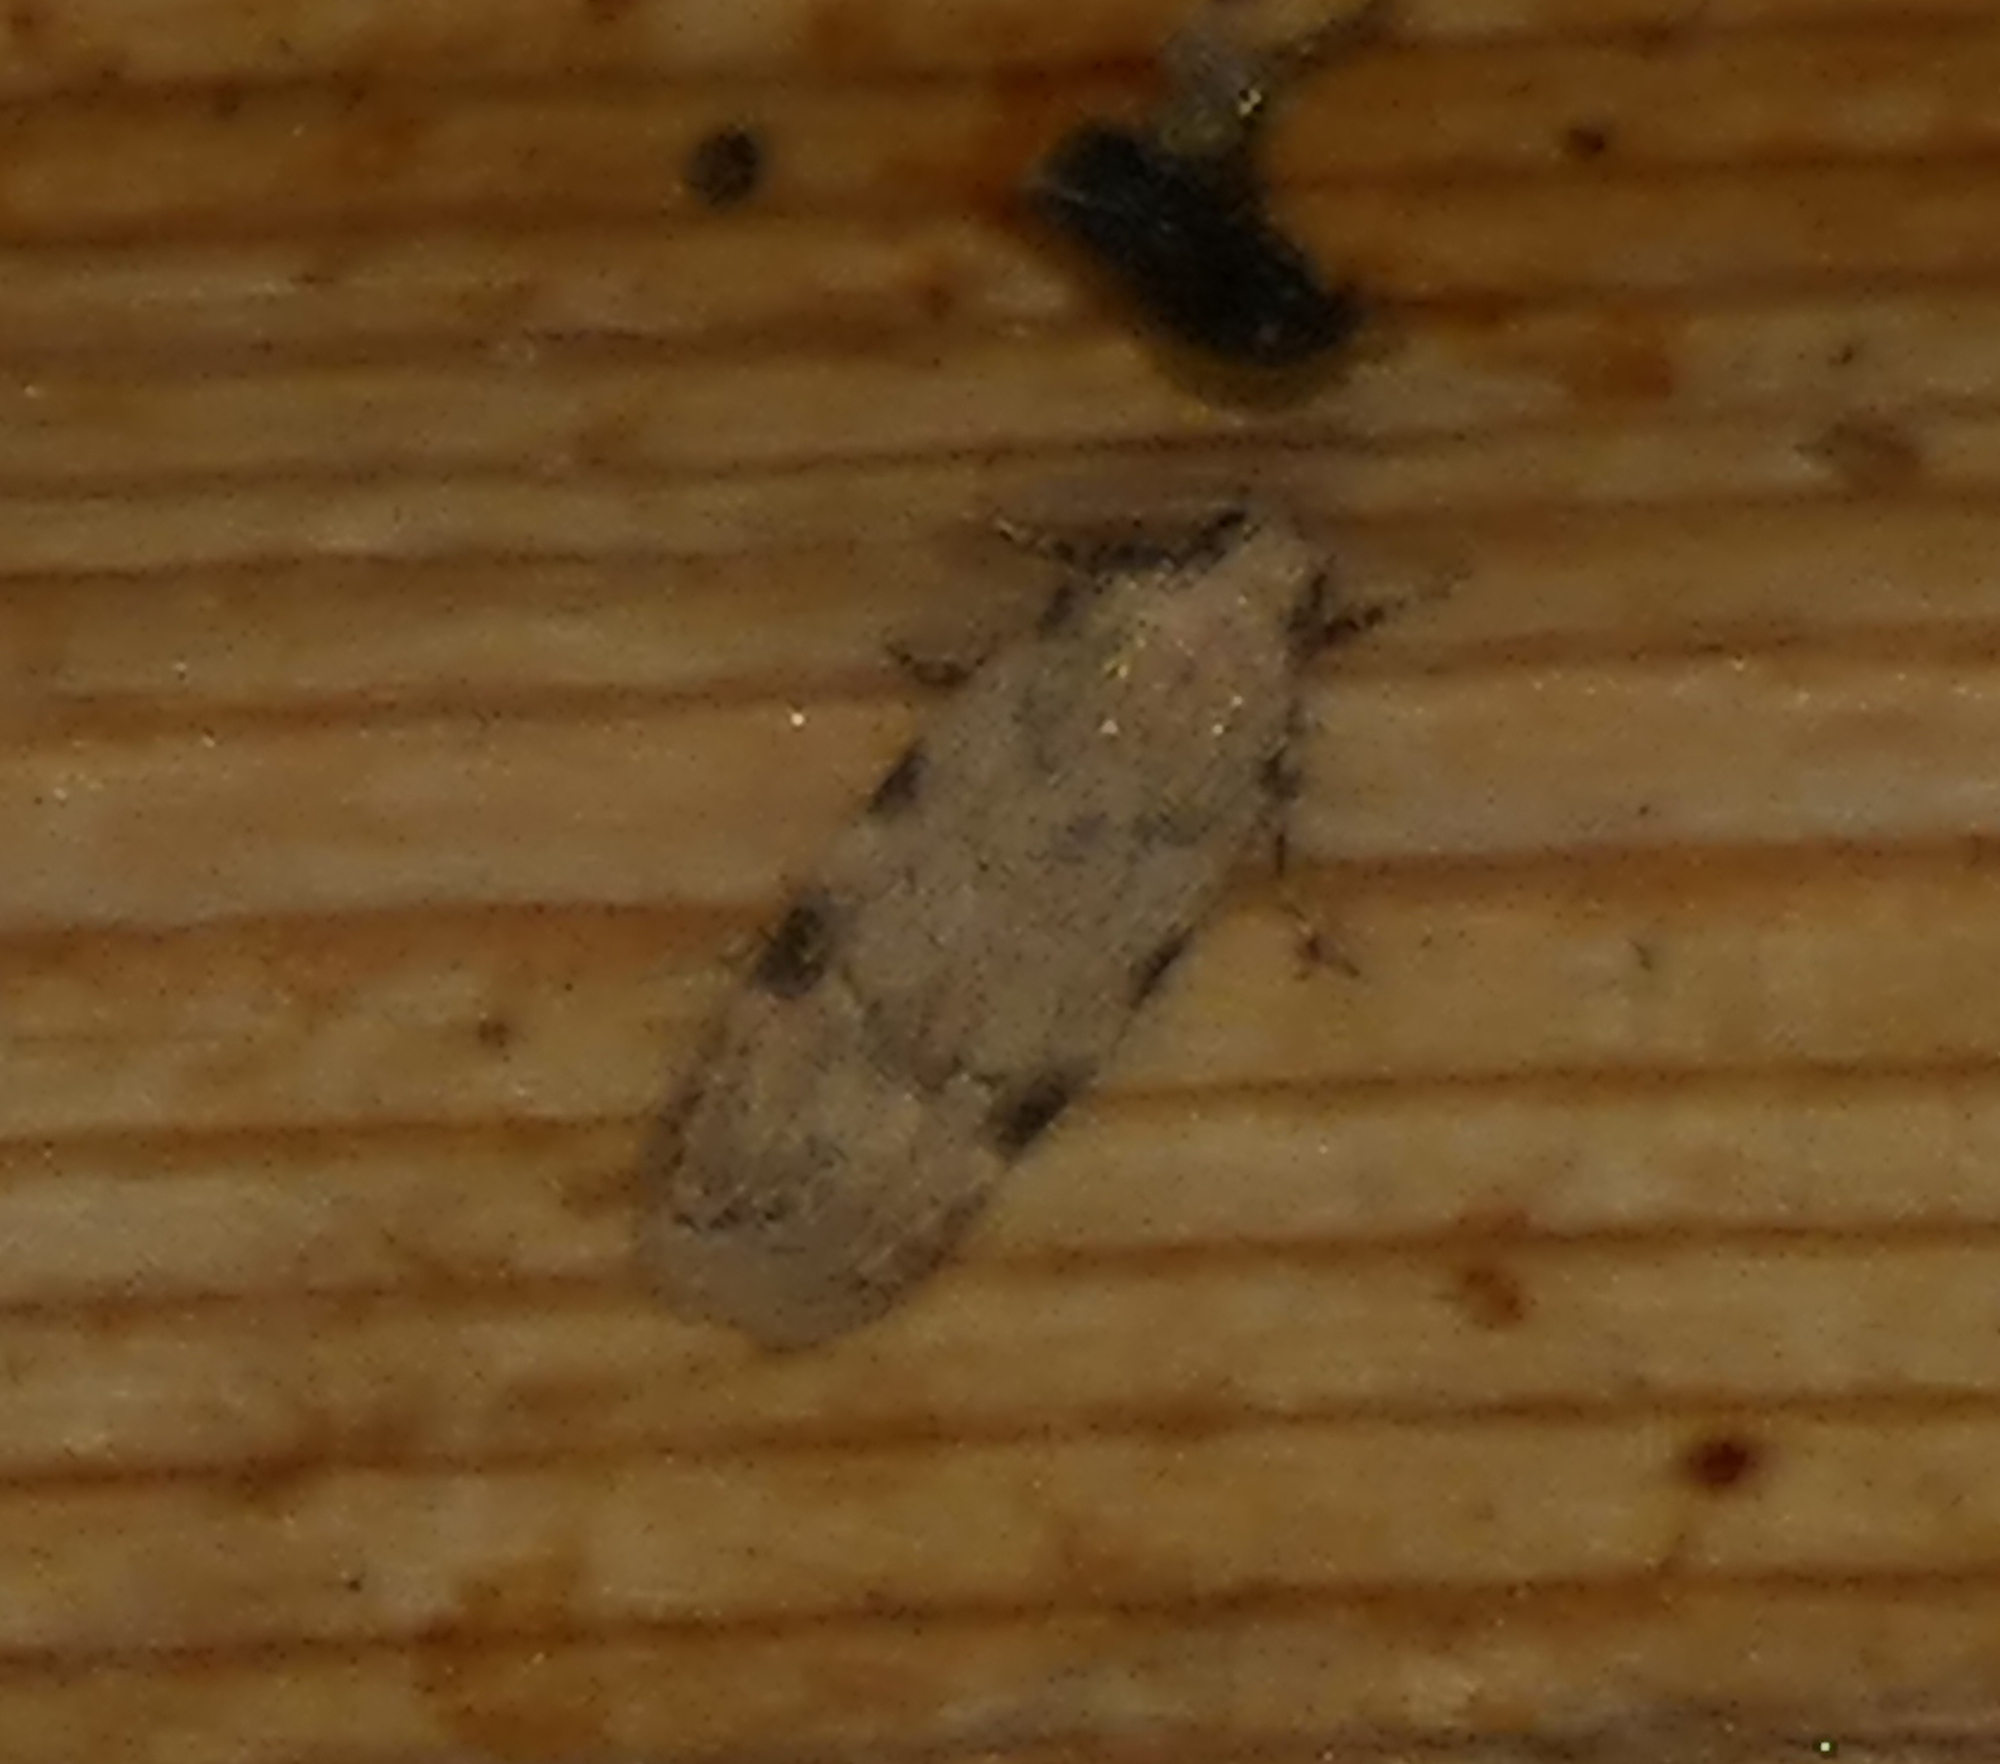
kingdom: Animalia
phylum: Arthropoda
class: Insecta
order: Lepidoptera
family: Gelechiidae
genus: Friseria
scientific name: Friseria cockerelli
